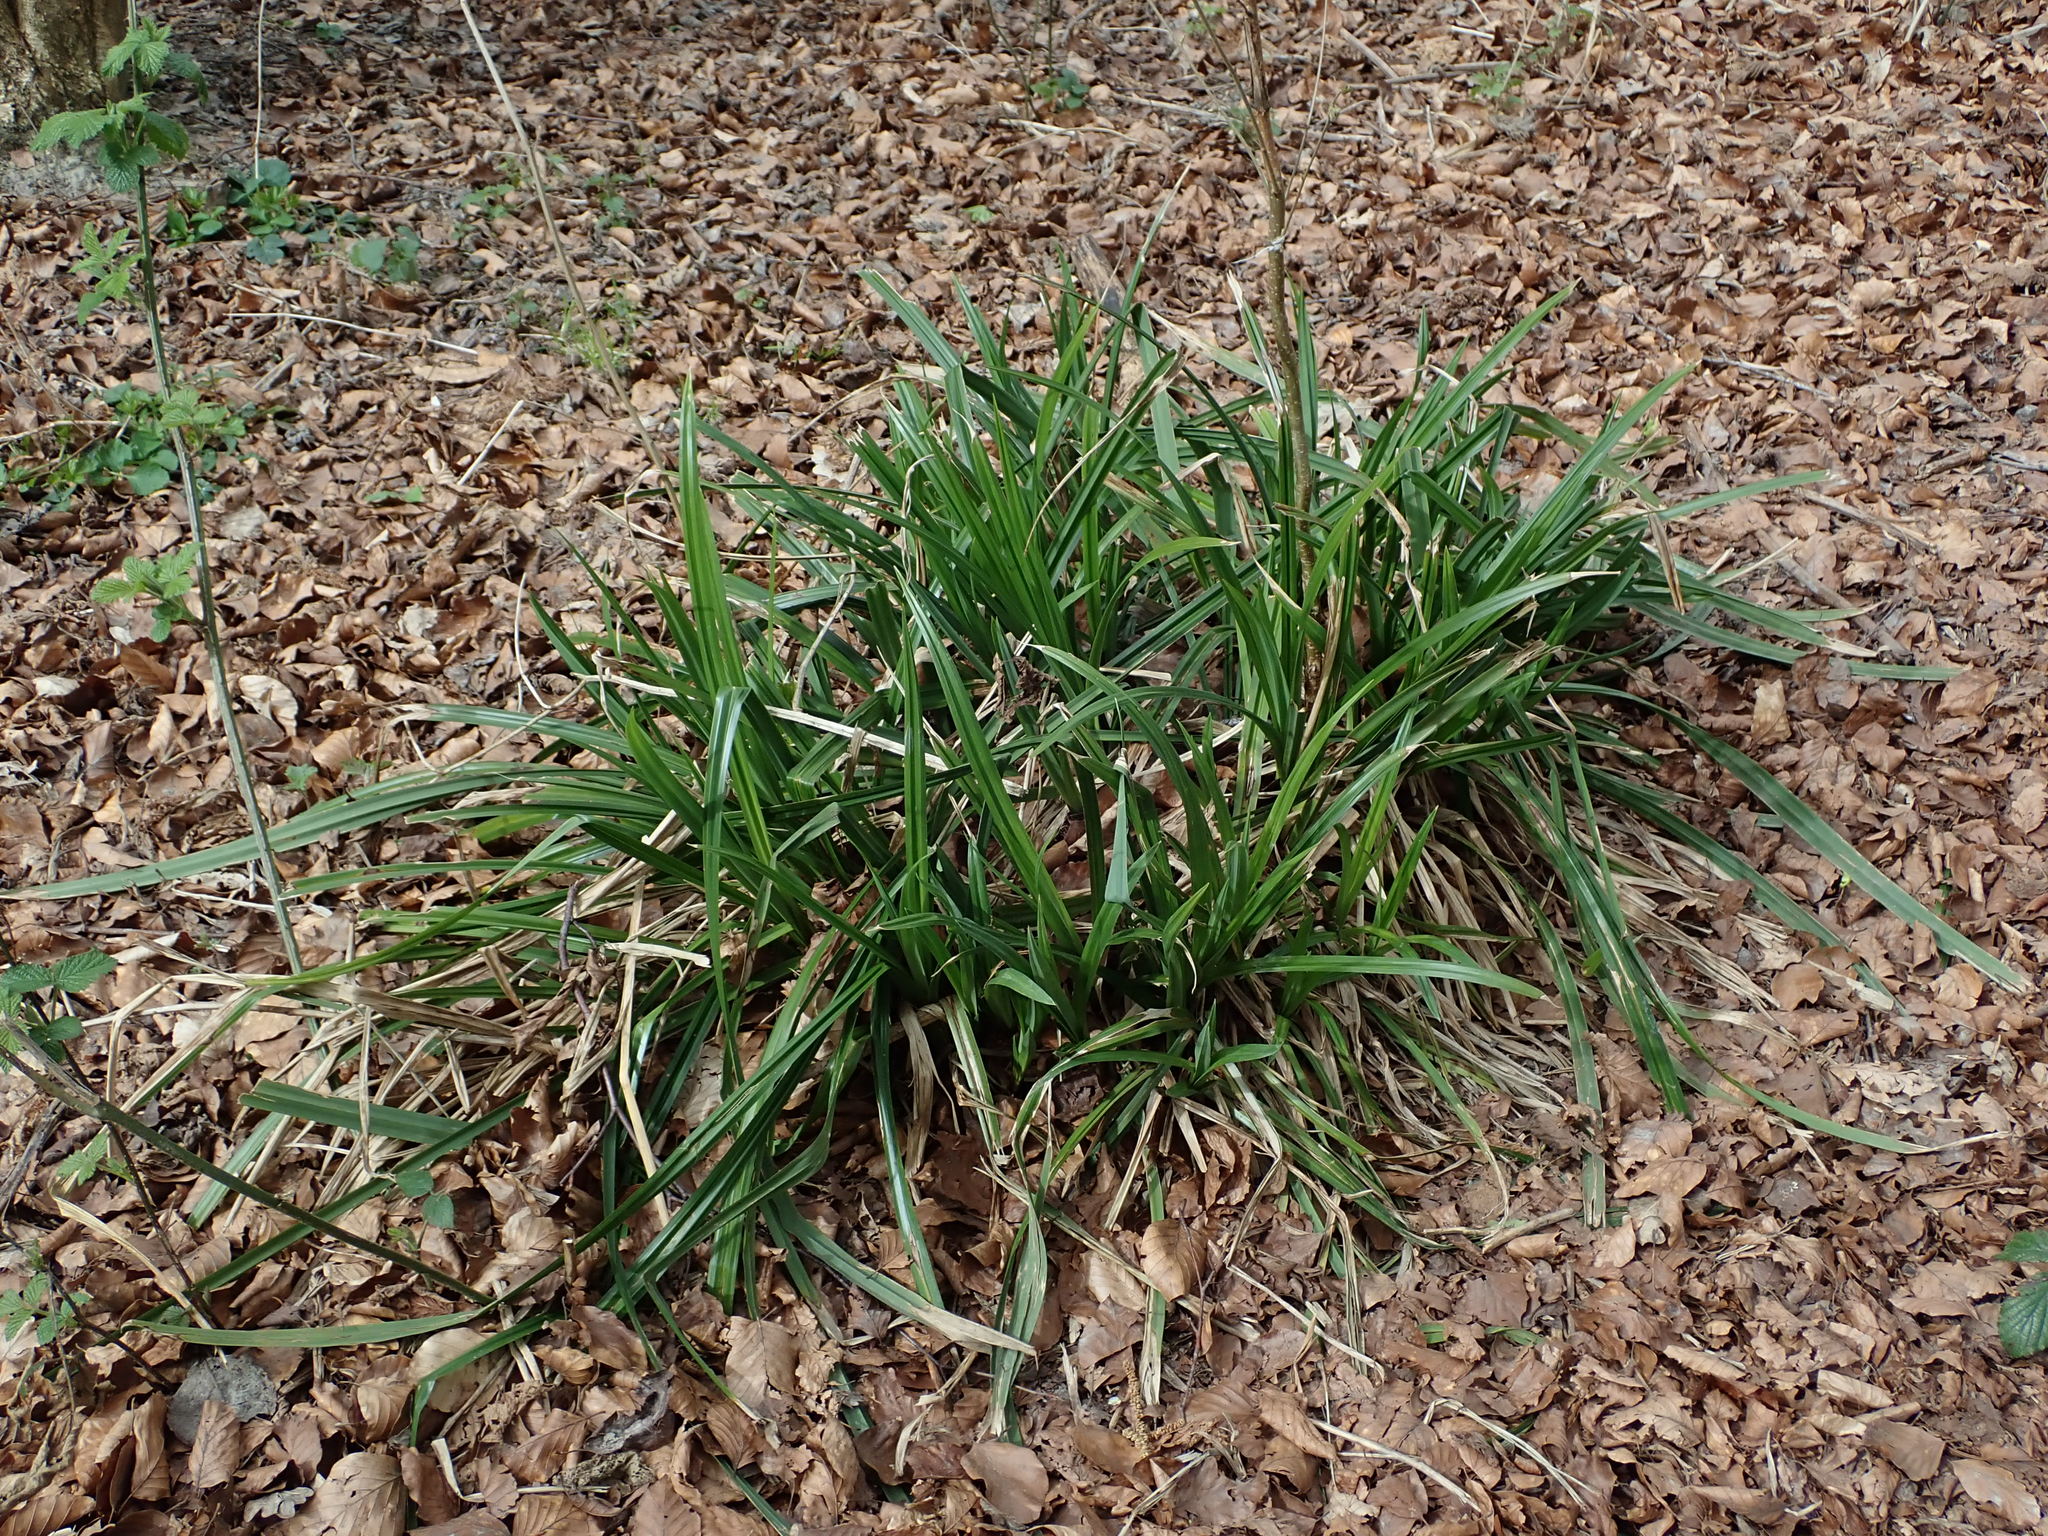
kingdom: Plantae
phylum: Tracheophyta
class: Liliopsida
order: Poales
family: Cyperaceae
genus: Carex
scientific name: Carex pendula
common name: Pendulous sedge
